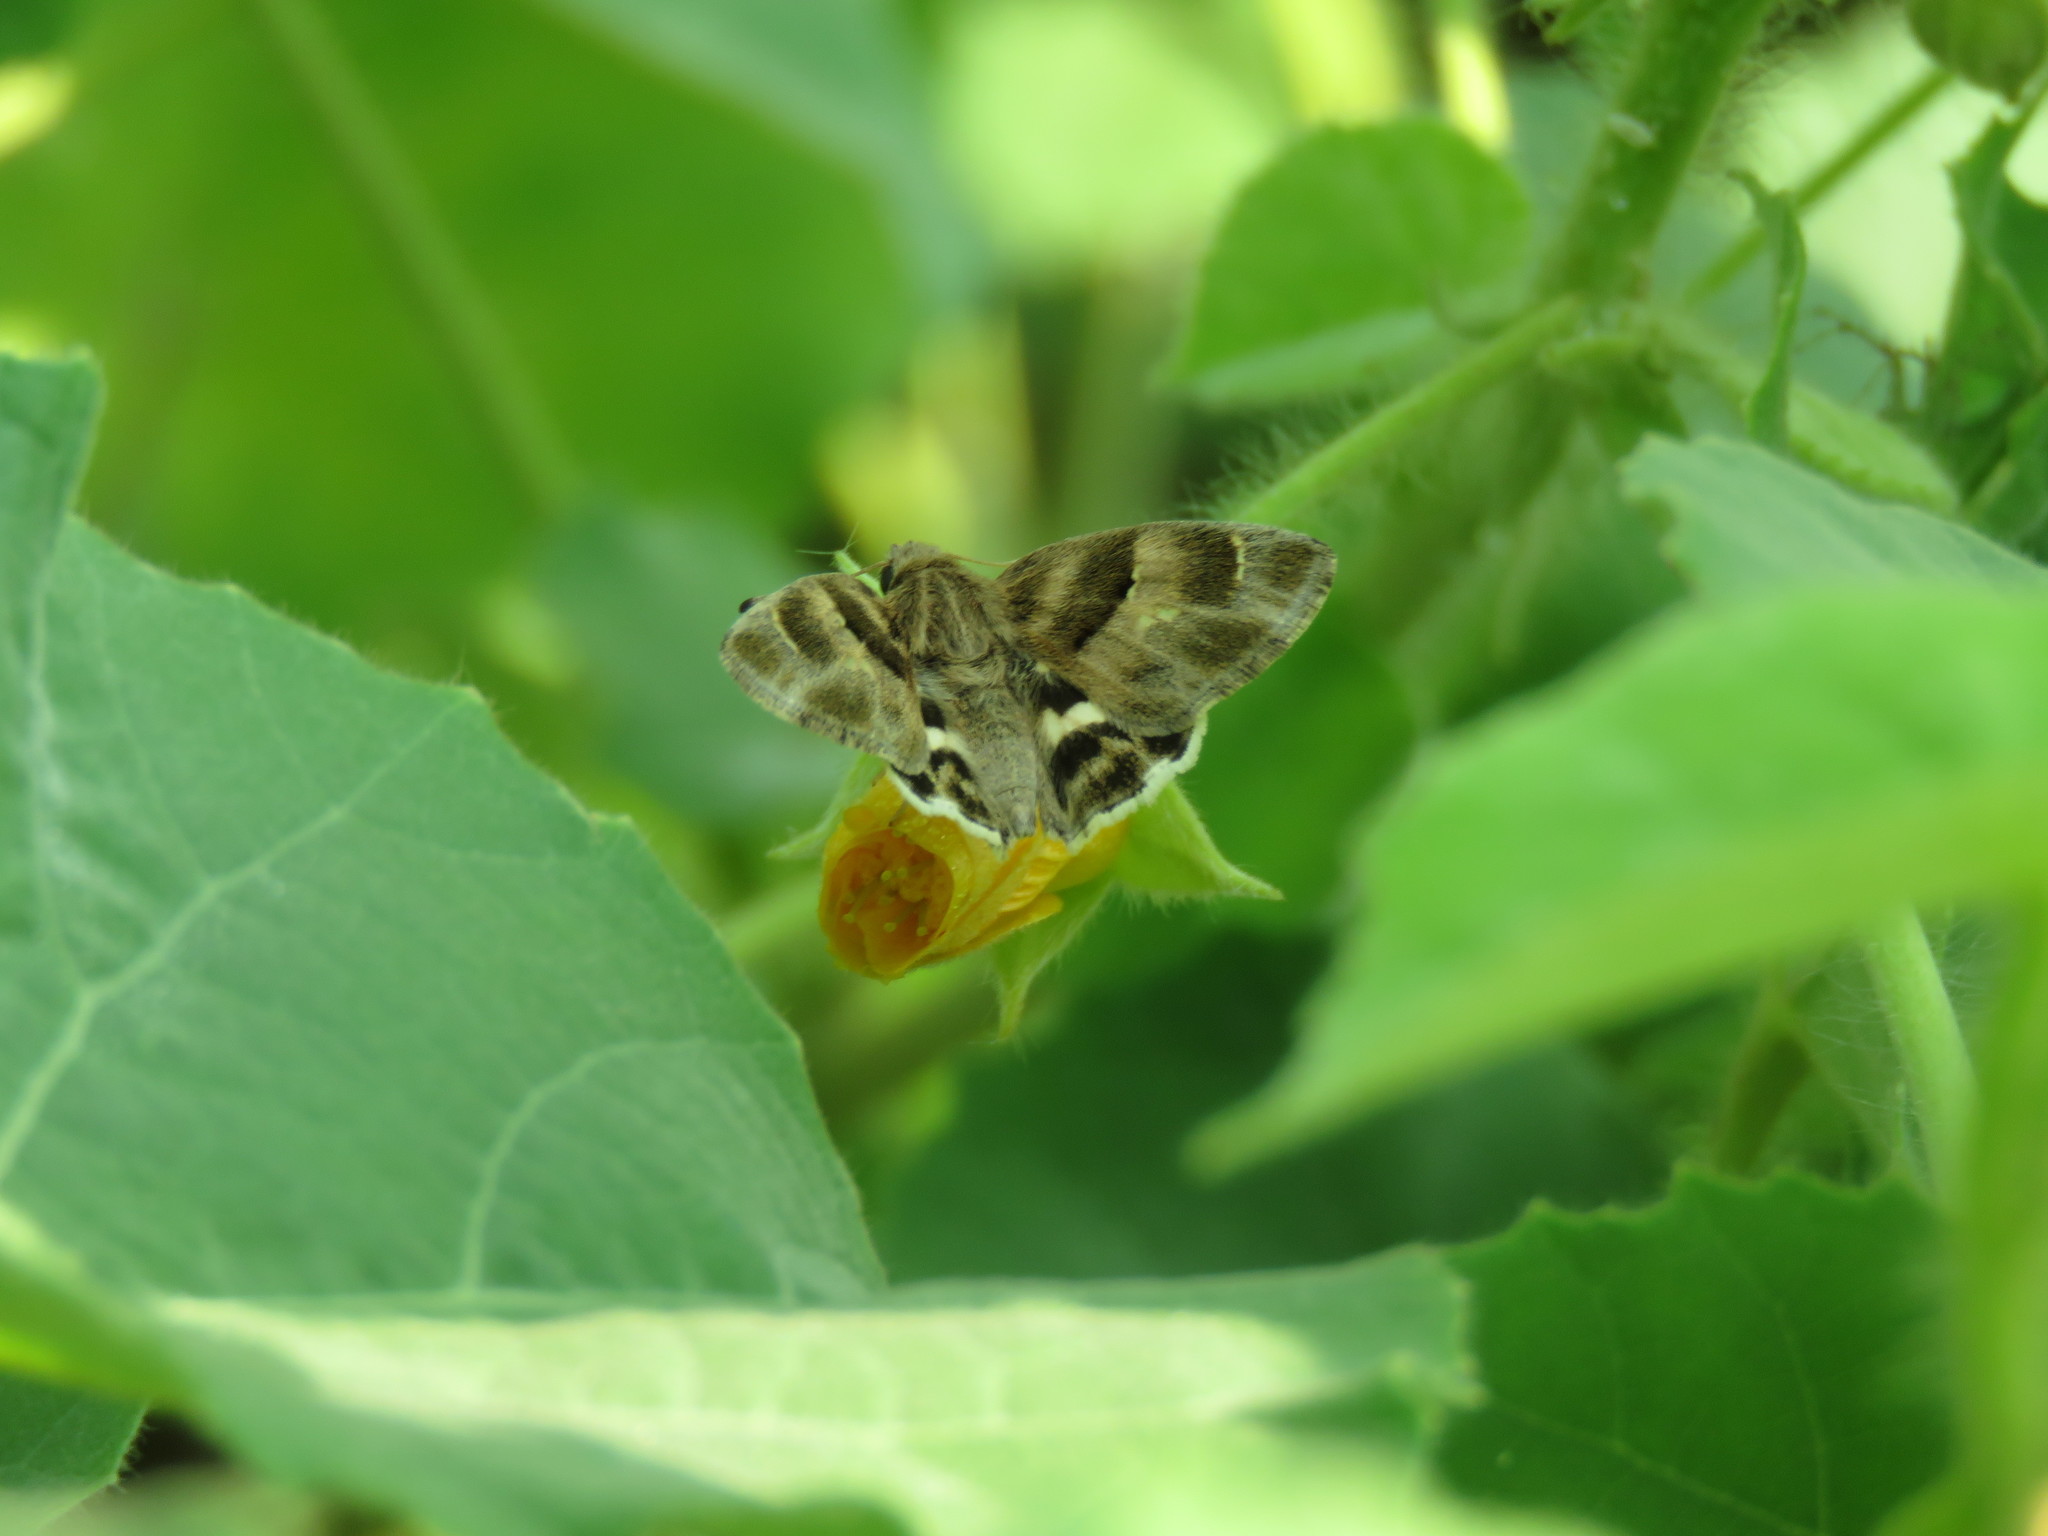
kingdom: Animalia
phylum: Arthropoda
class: Insecta
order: Lepidoptera
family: Hesperiidae
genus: Gomalia
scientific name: Gomalia elma
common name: Green-marbled skipper
